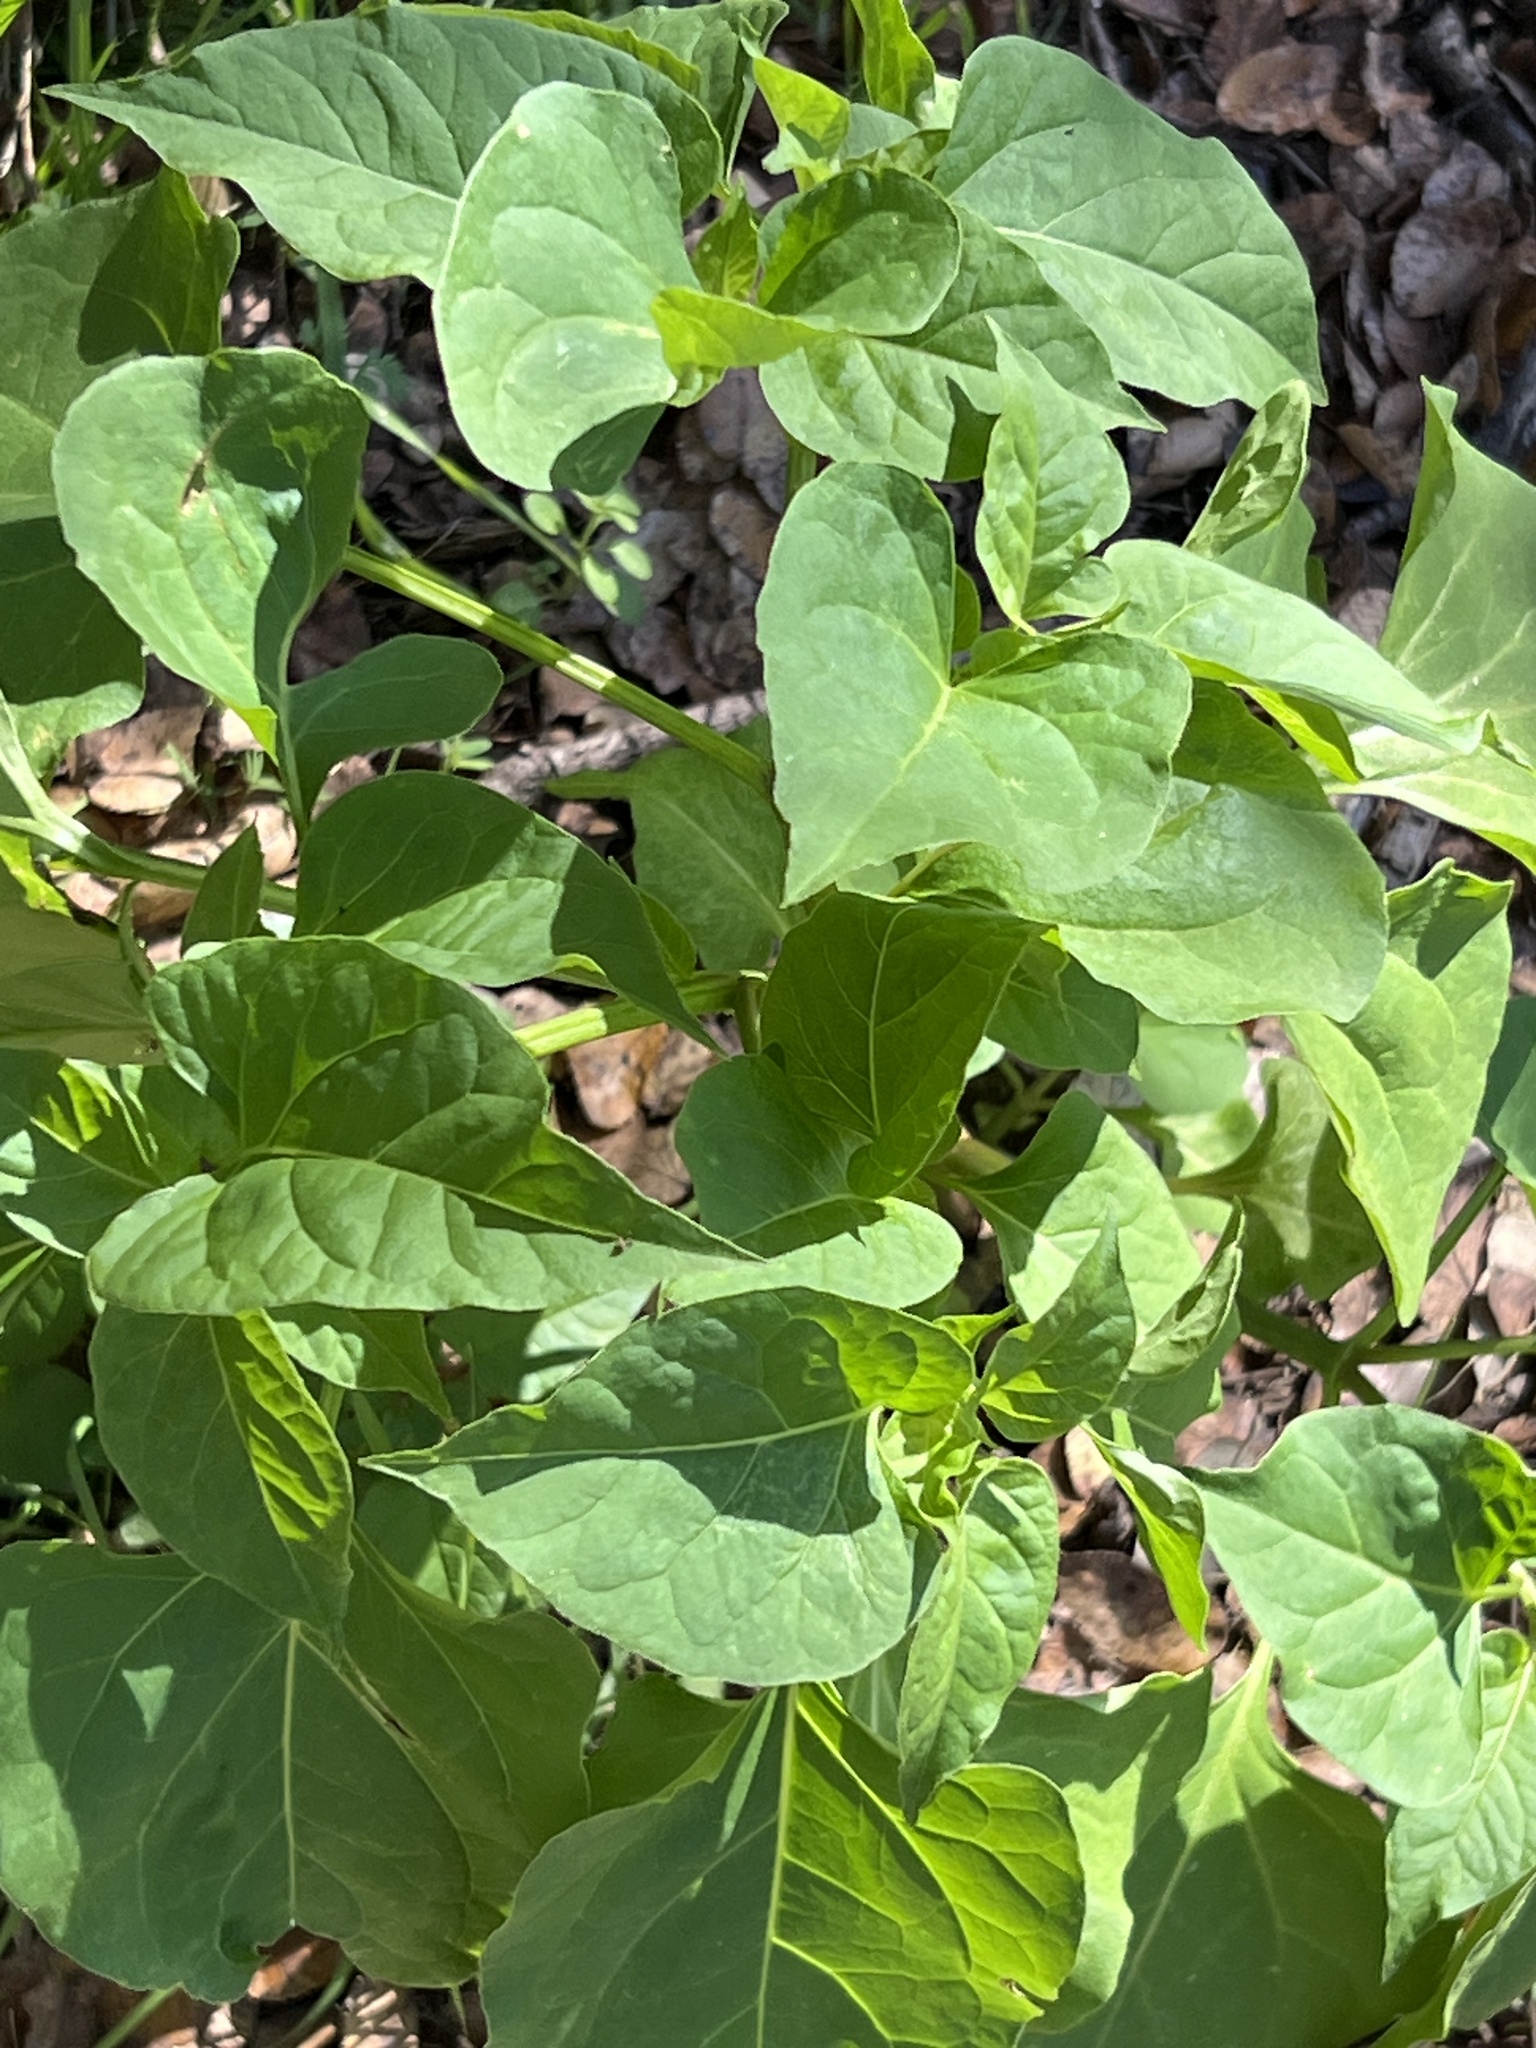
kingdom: Plantae
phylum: Tracheophyta
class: Magnoliopsida
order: Caryophyllales
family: Nyctaginaceae
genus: Mirabilis
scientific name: Mirabilis jalapa
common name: Marvel-of-peru
